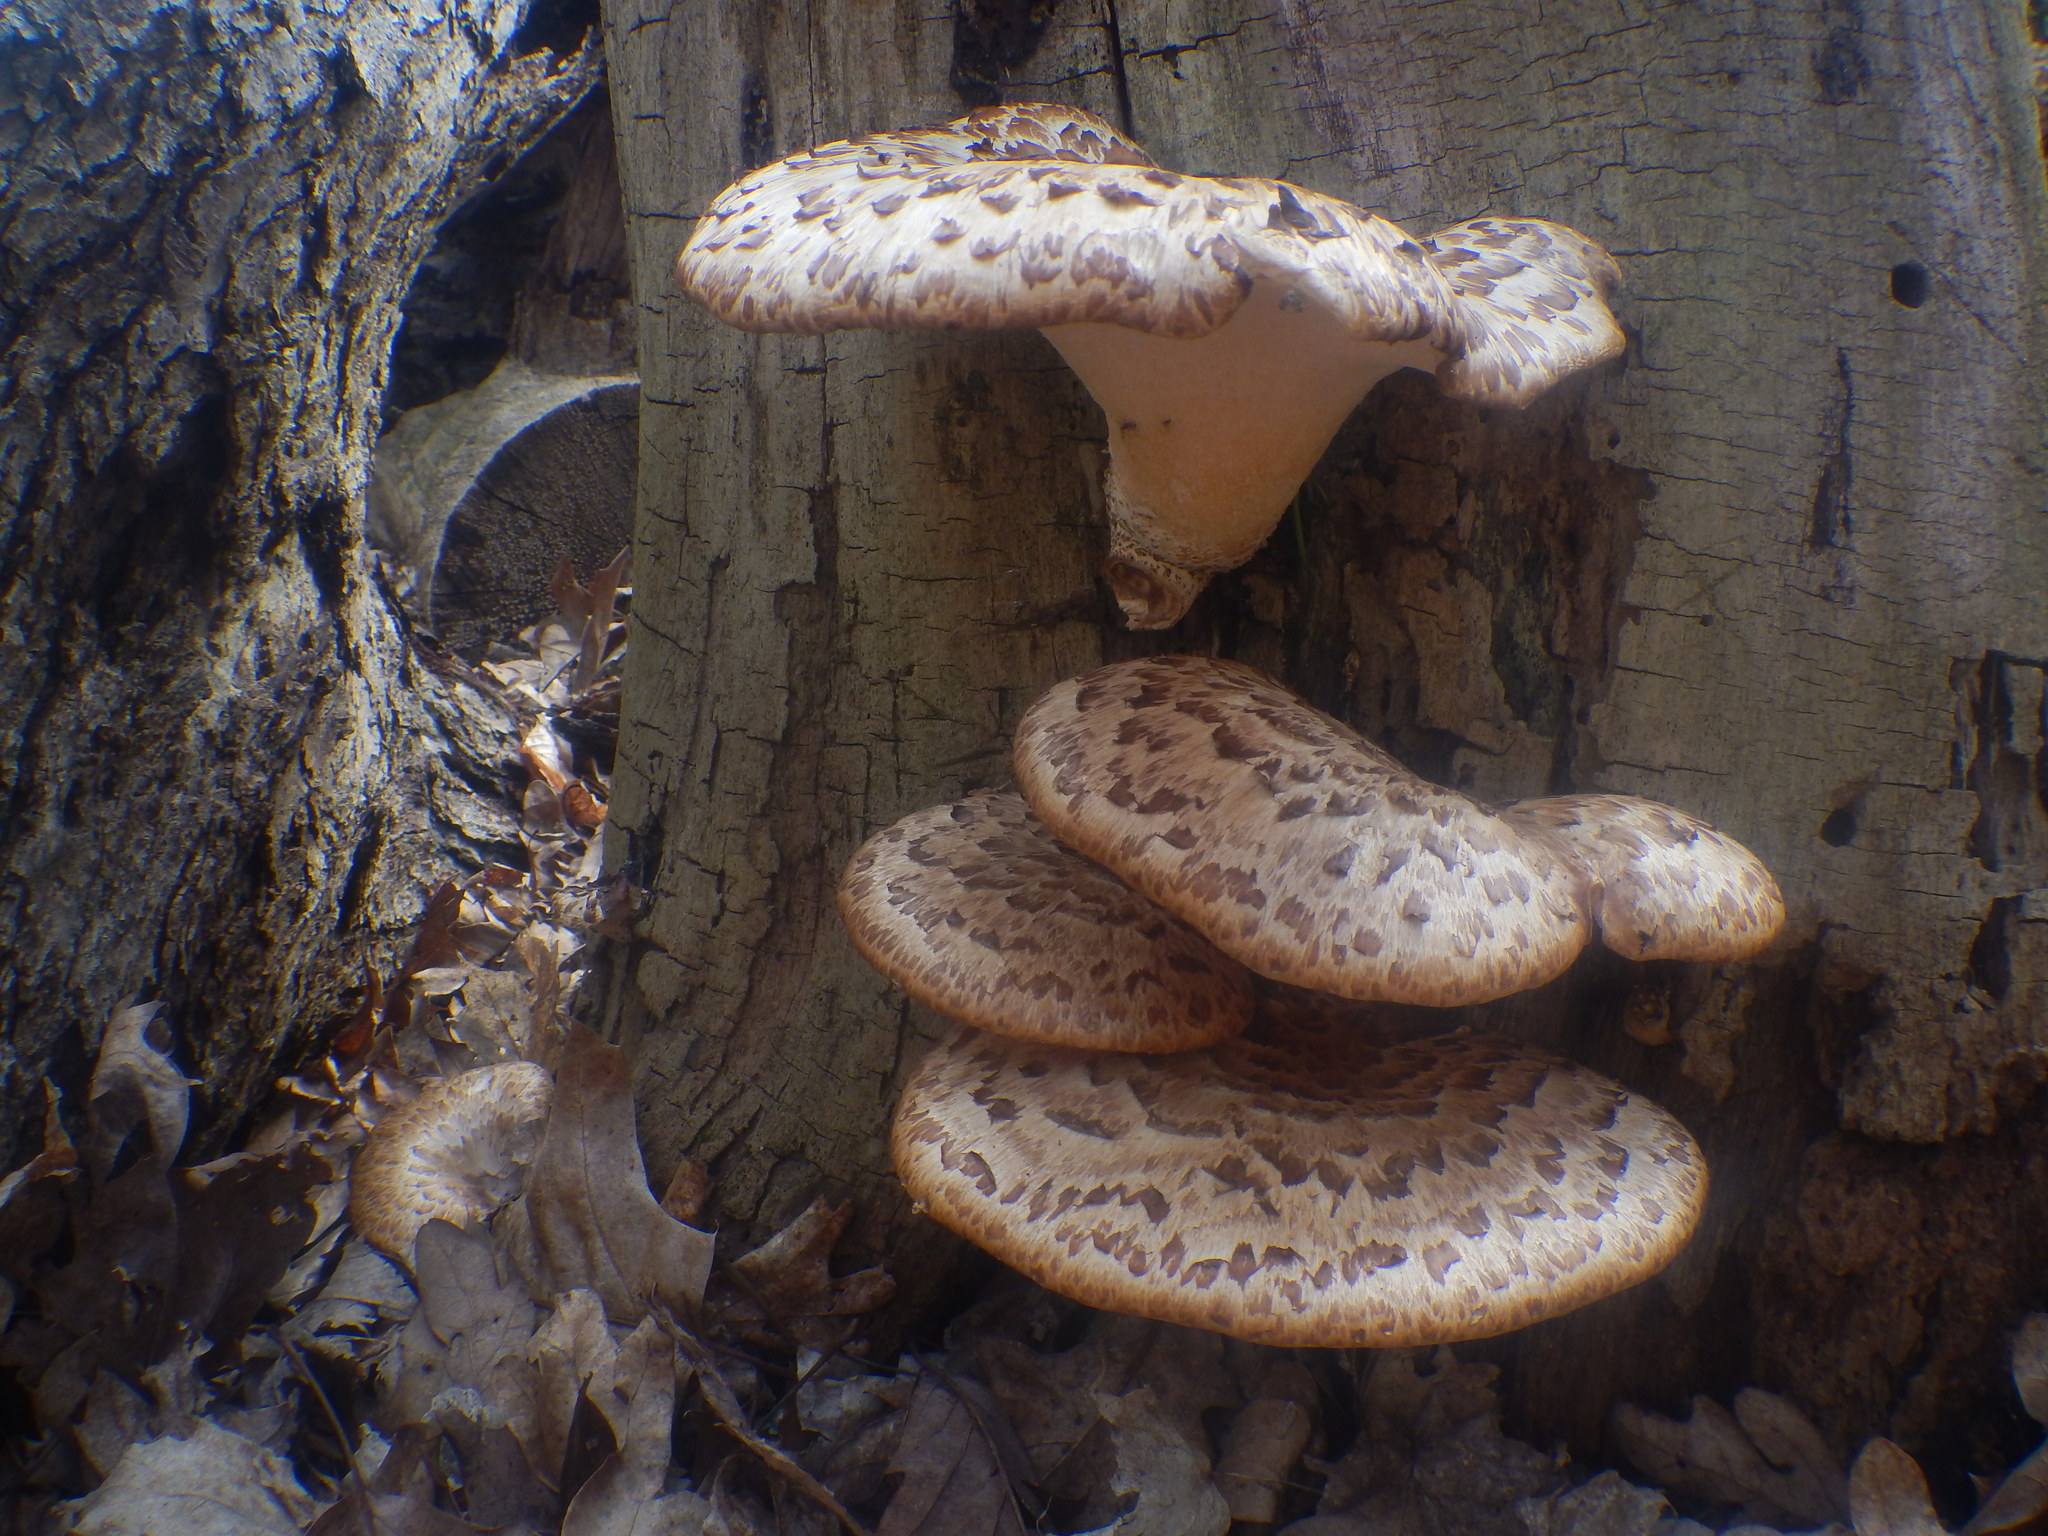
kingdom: Fungi
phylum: Basidiomycota
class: Agaricomycetes
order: Polyporales
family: Polyporaceae
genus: Cerioporus
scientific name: Cerioporus squamosus
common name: Dryad's saddle
